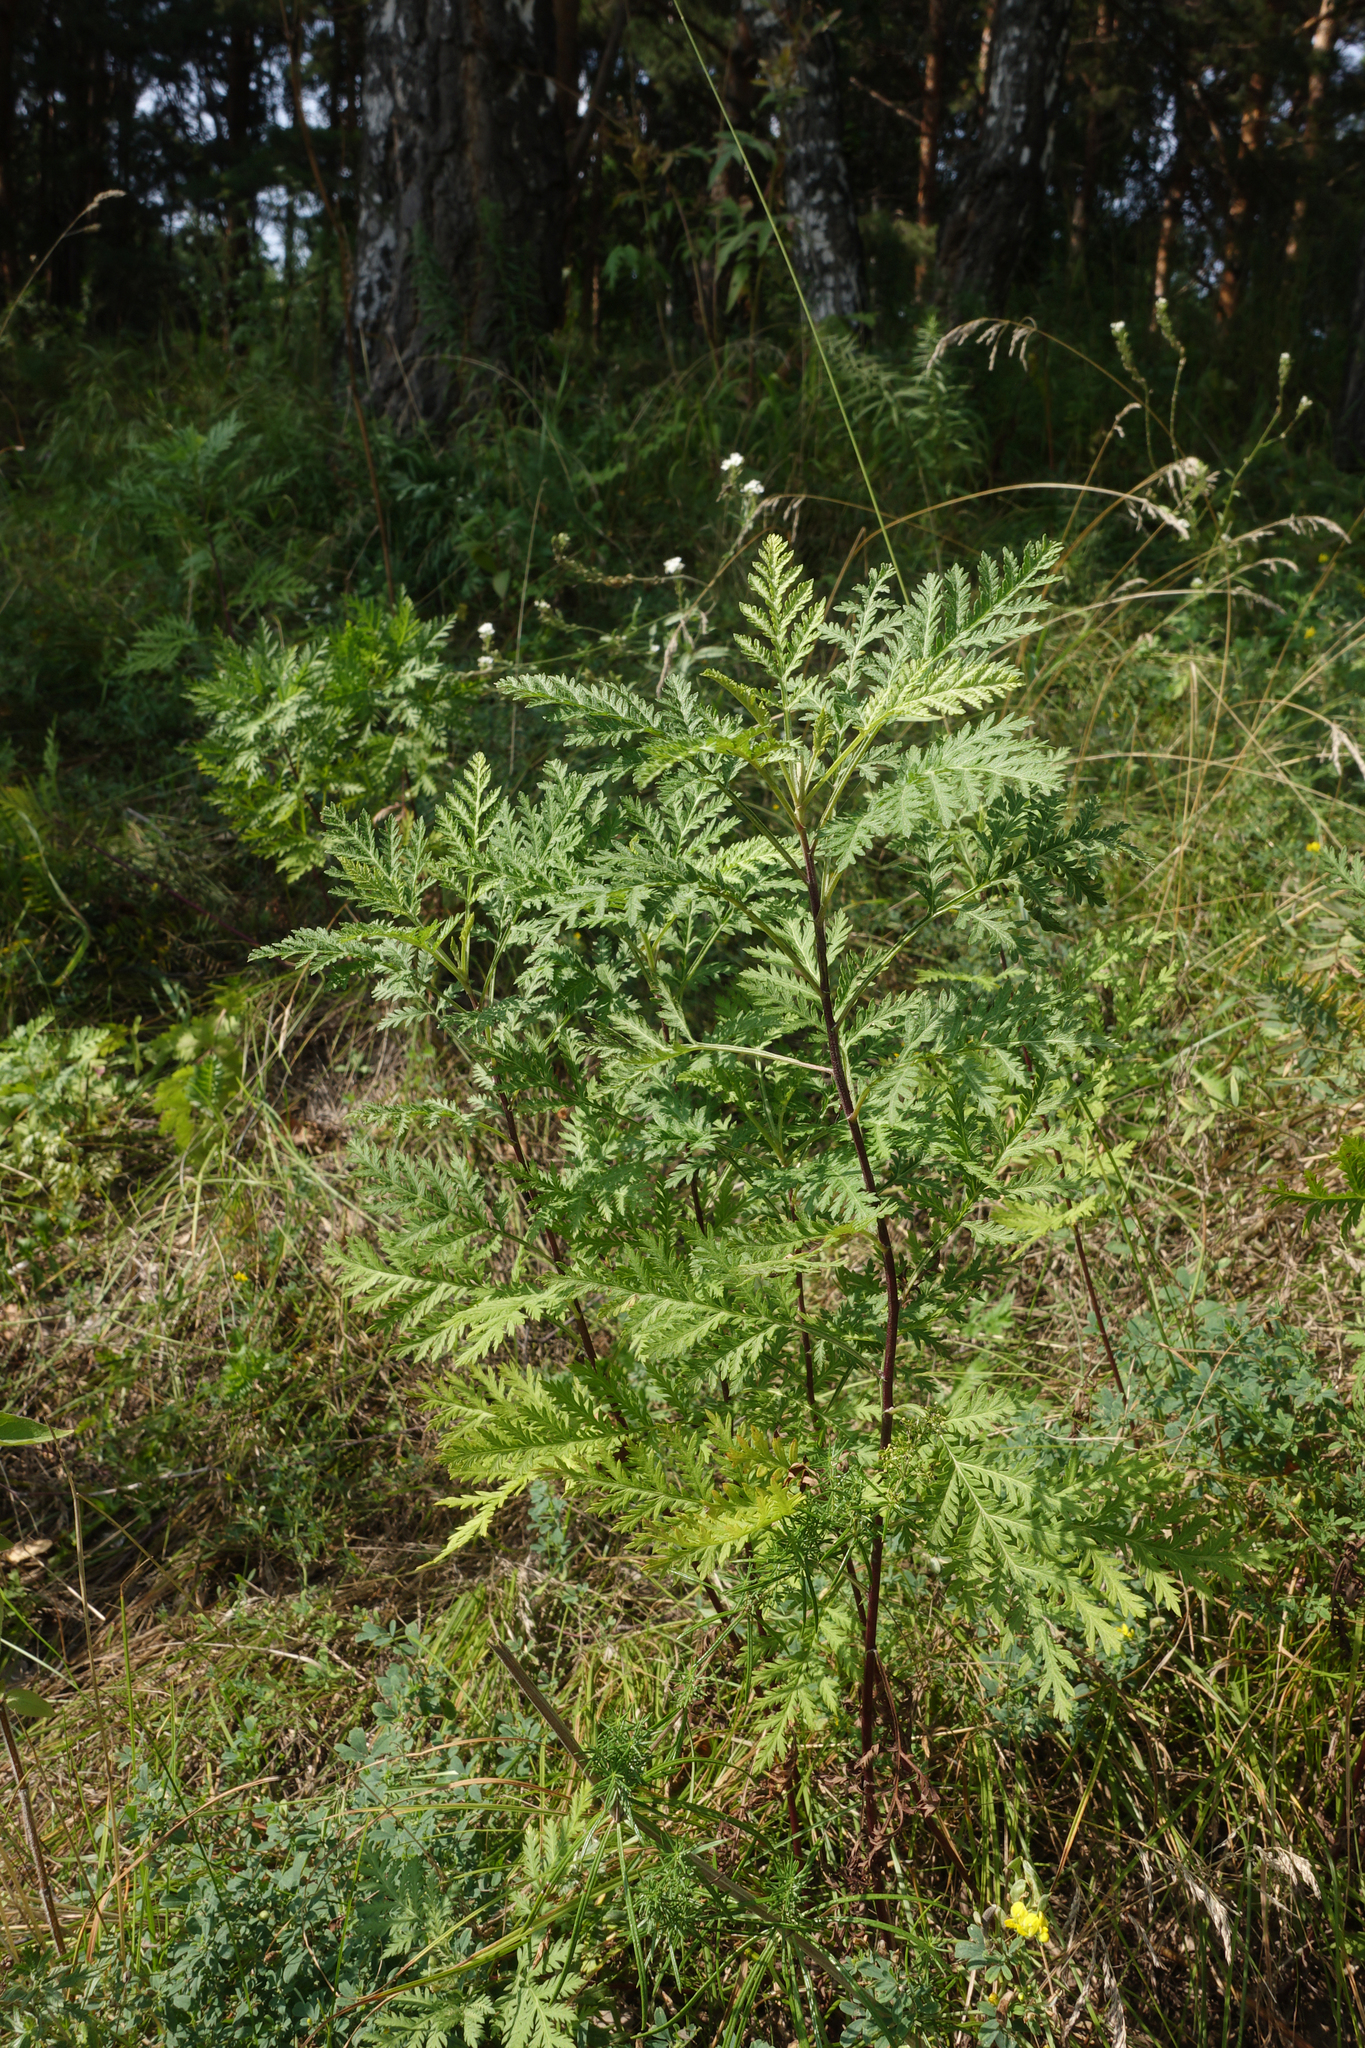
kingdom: Plantae
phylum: Tracheophyta
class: Magnoliopsida
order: Asterales
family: Asteraceae
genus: Artemisia
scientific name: Artemisia gmelinii
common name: Gmelin's wormwood
